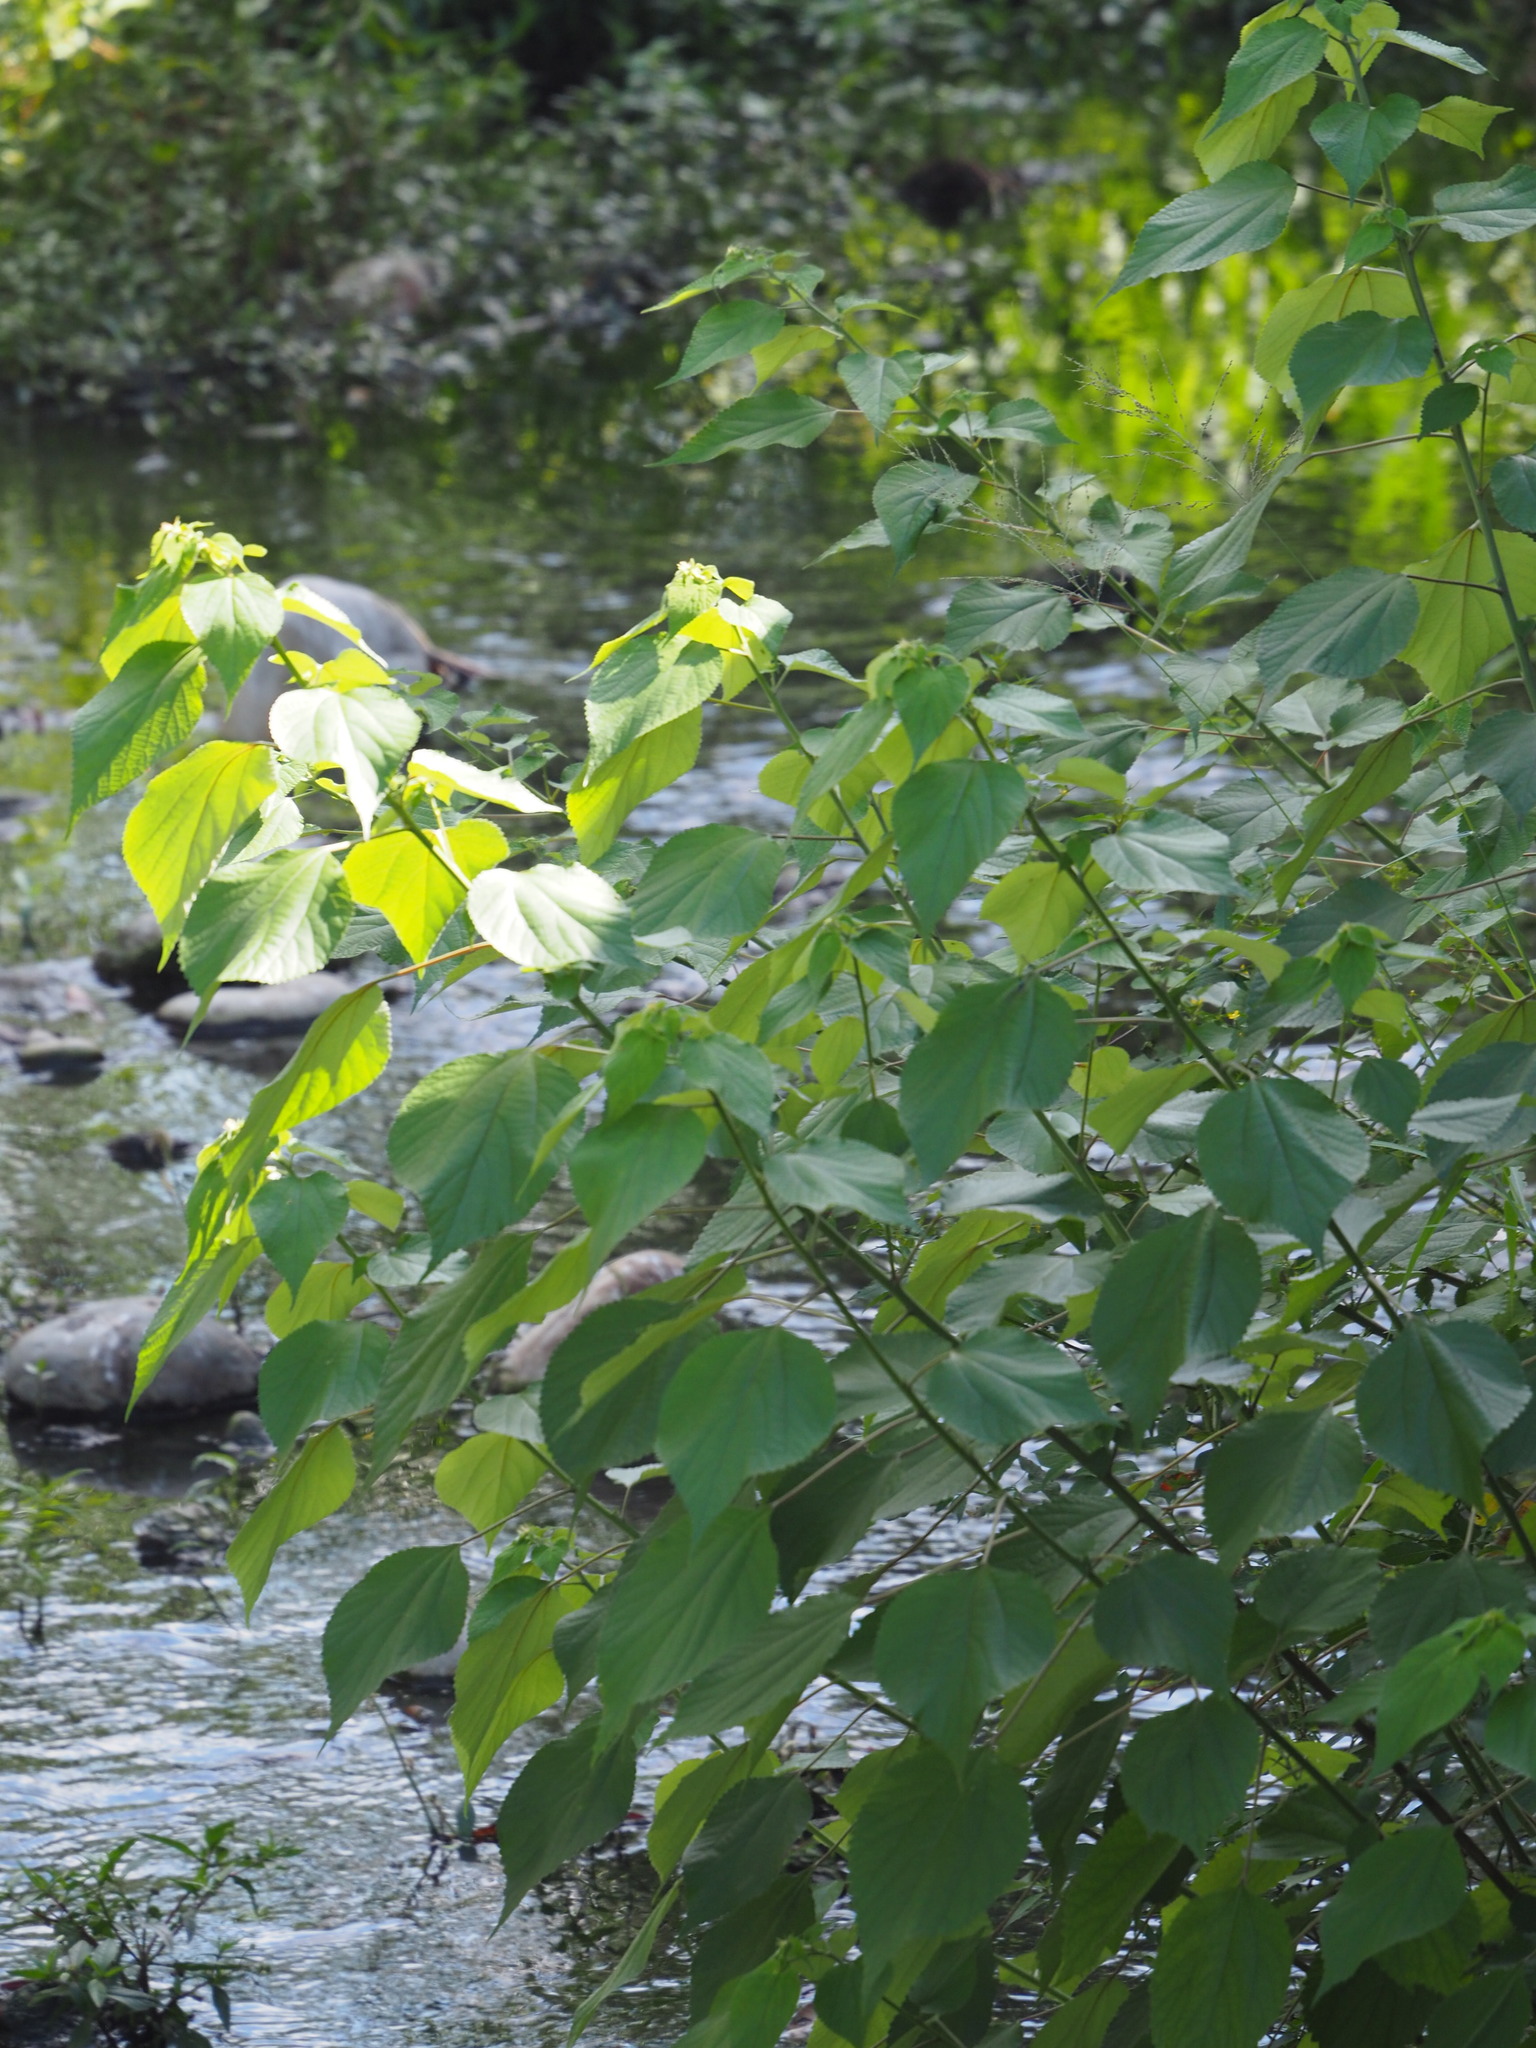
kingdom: Plantae
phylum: Tracheophyta
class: Magnoliopsida
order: Rosales
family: Urticaceae
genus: Boehmeria
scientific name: Boehmeria nivea
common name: Ramie chinese grass
